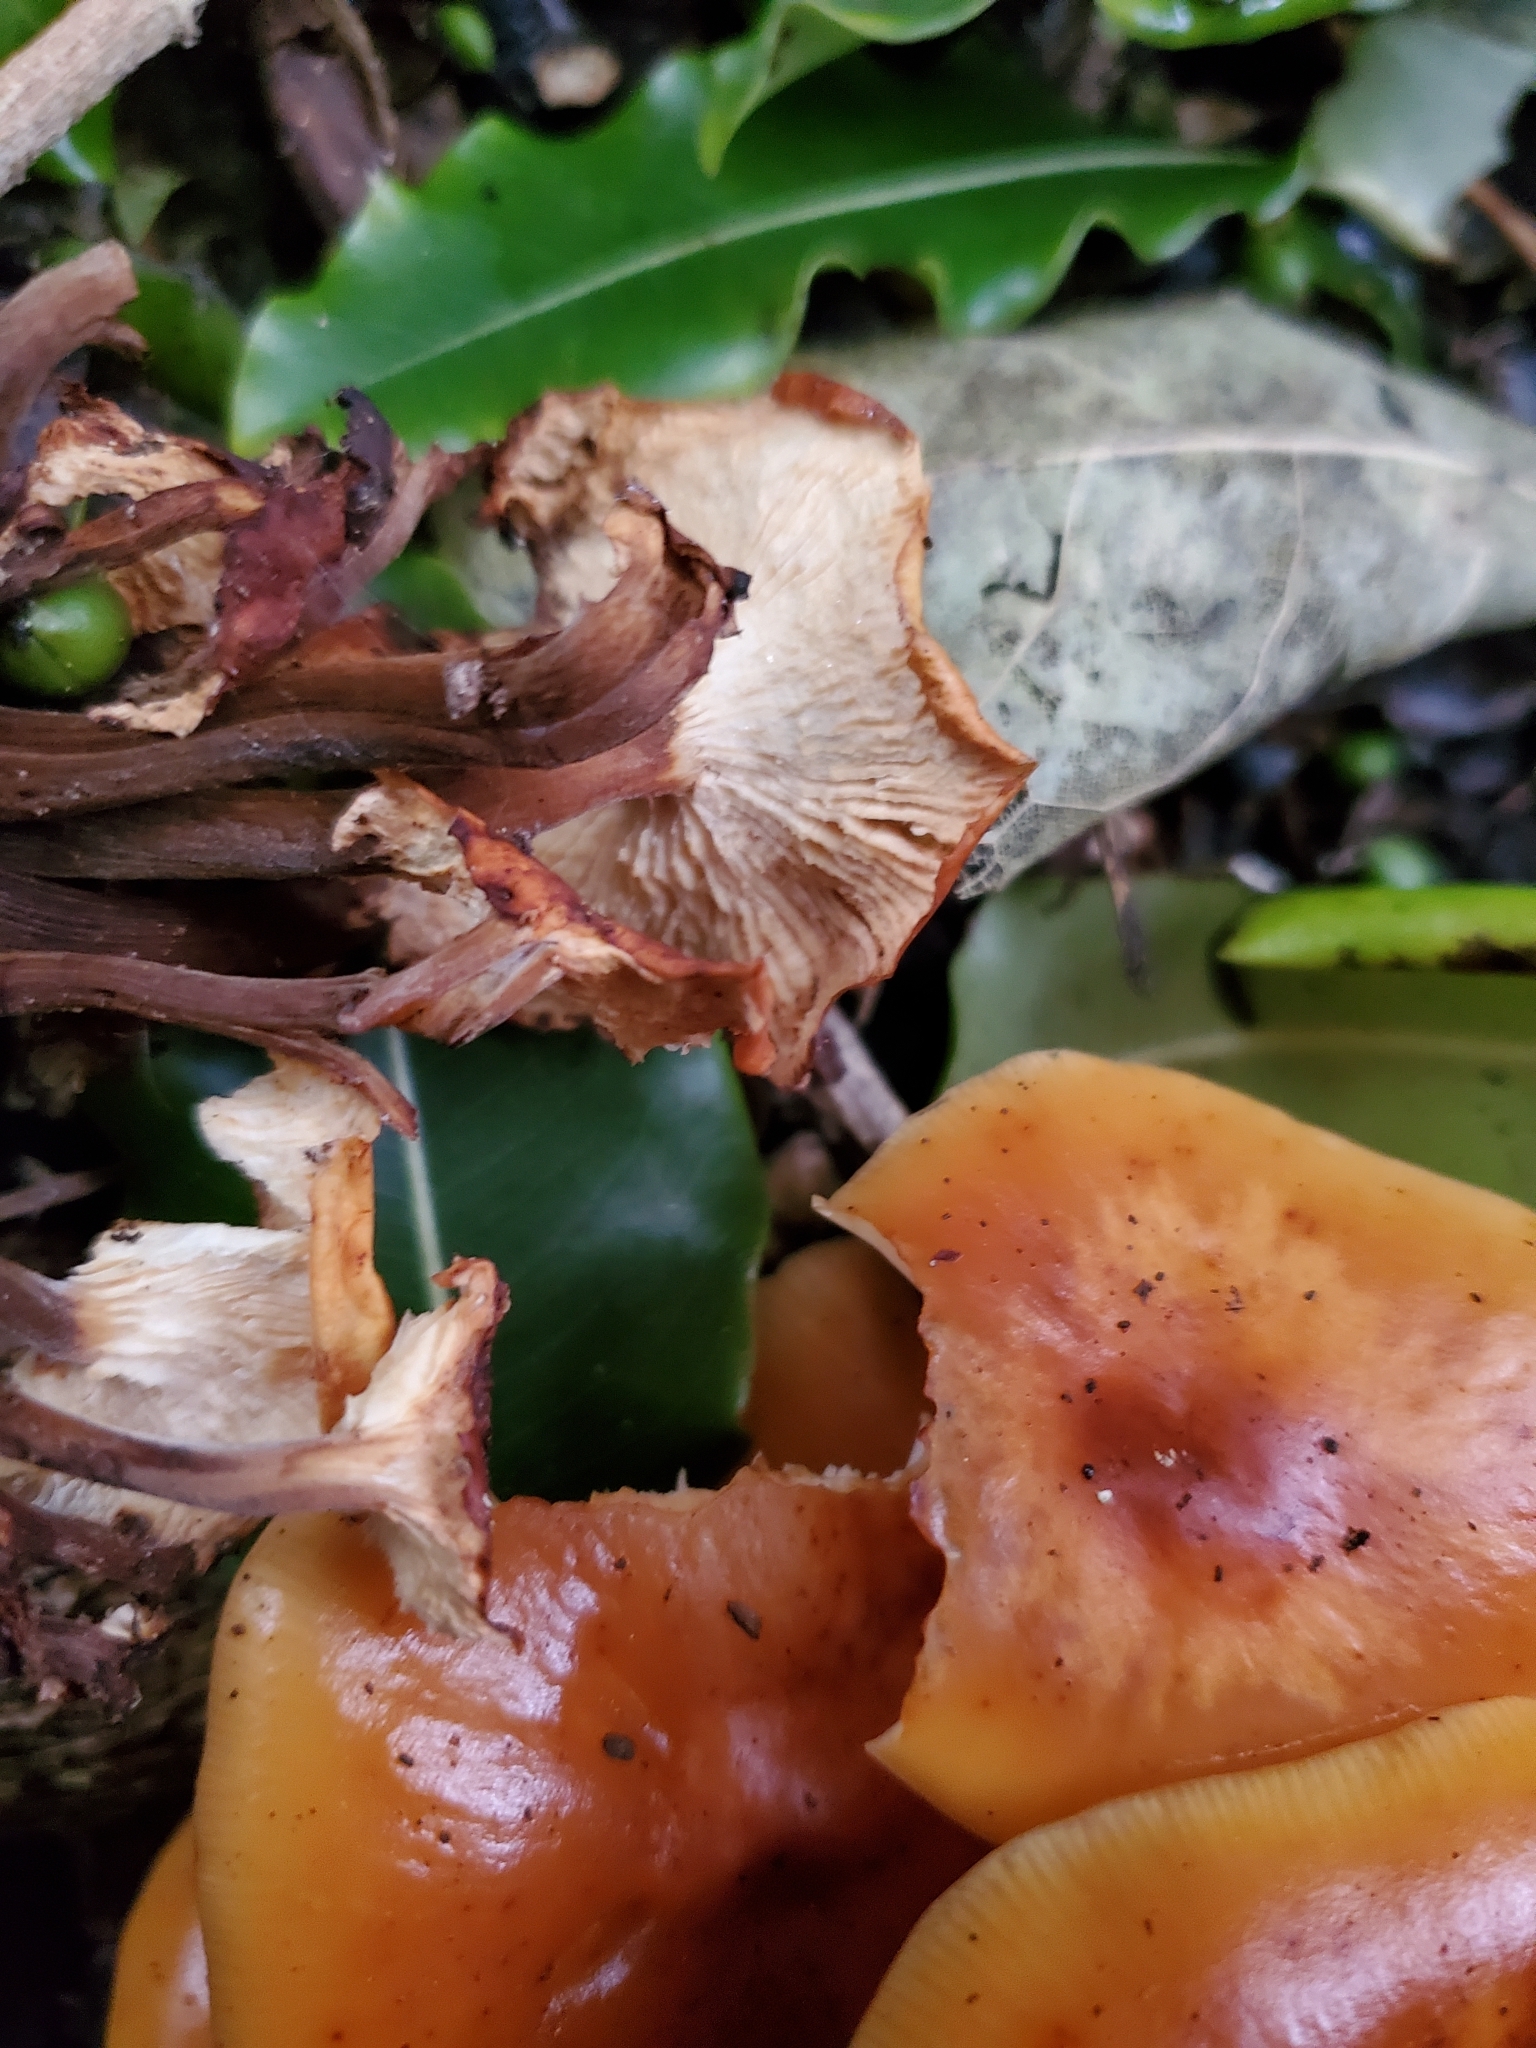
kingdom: Fungi
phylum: Basidiomycota
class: Agaricomycetes
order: Agaricales
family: Physalacriaceae
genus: Flammulina
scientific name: Flammulina velutipes
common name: Velvet shank
